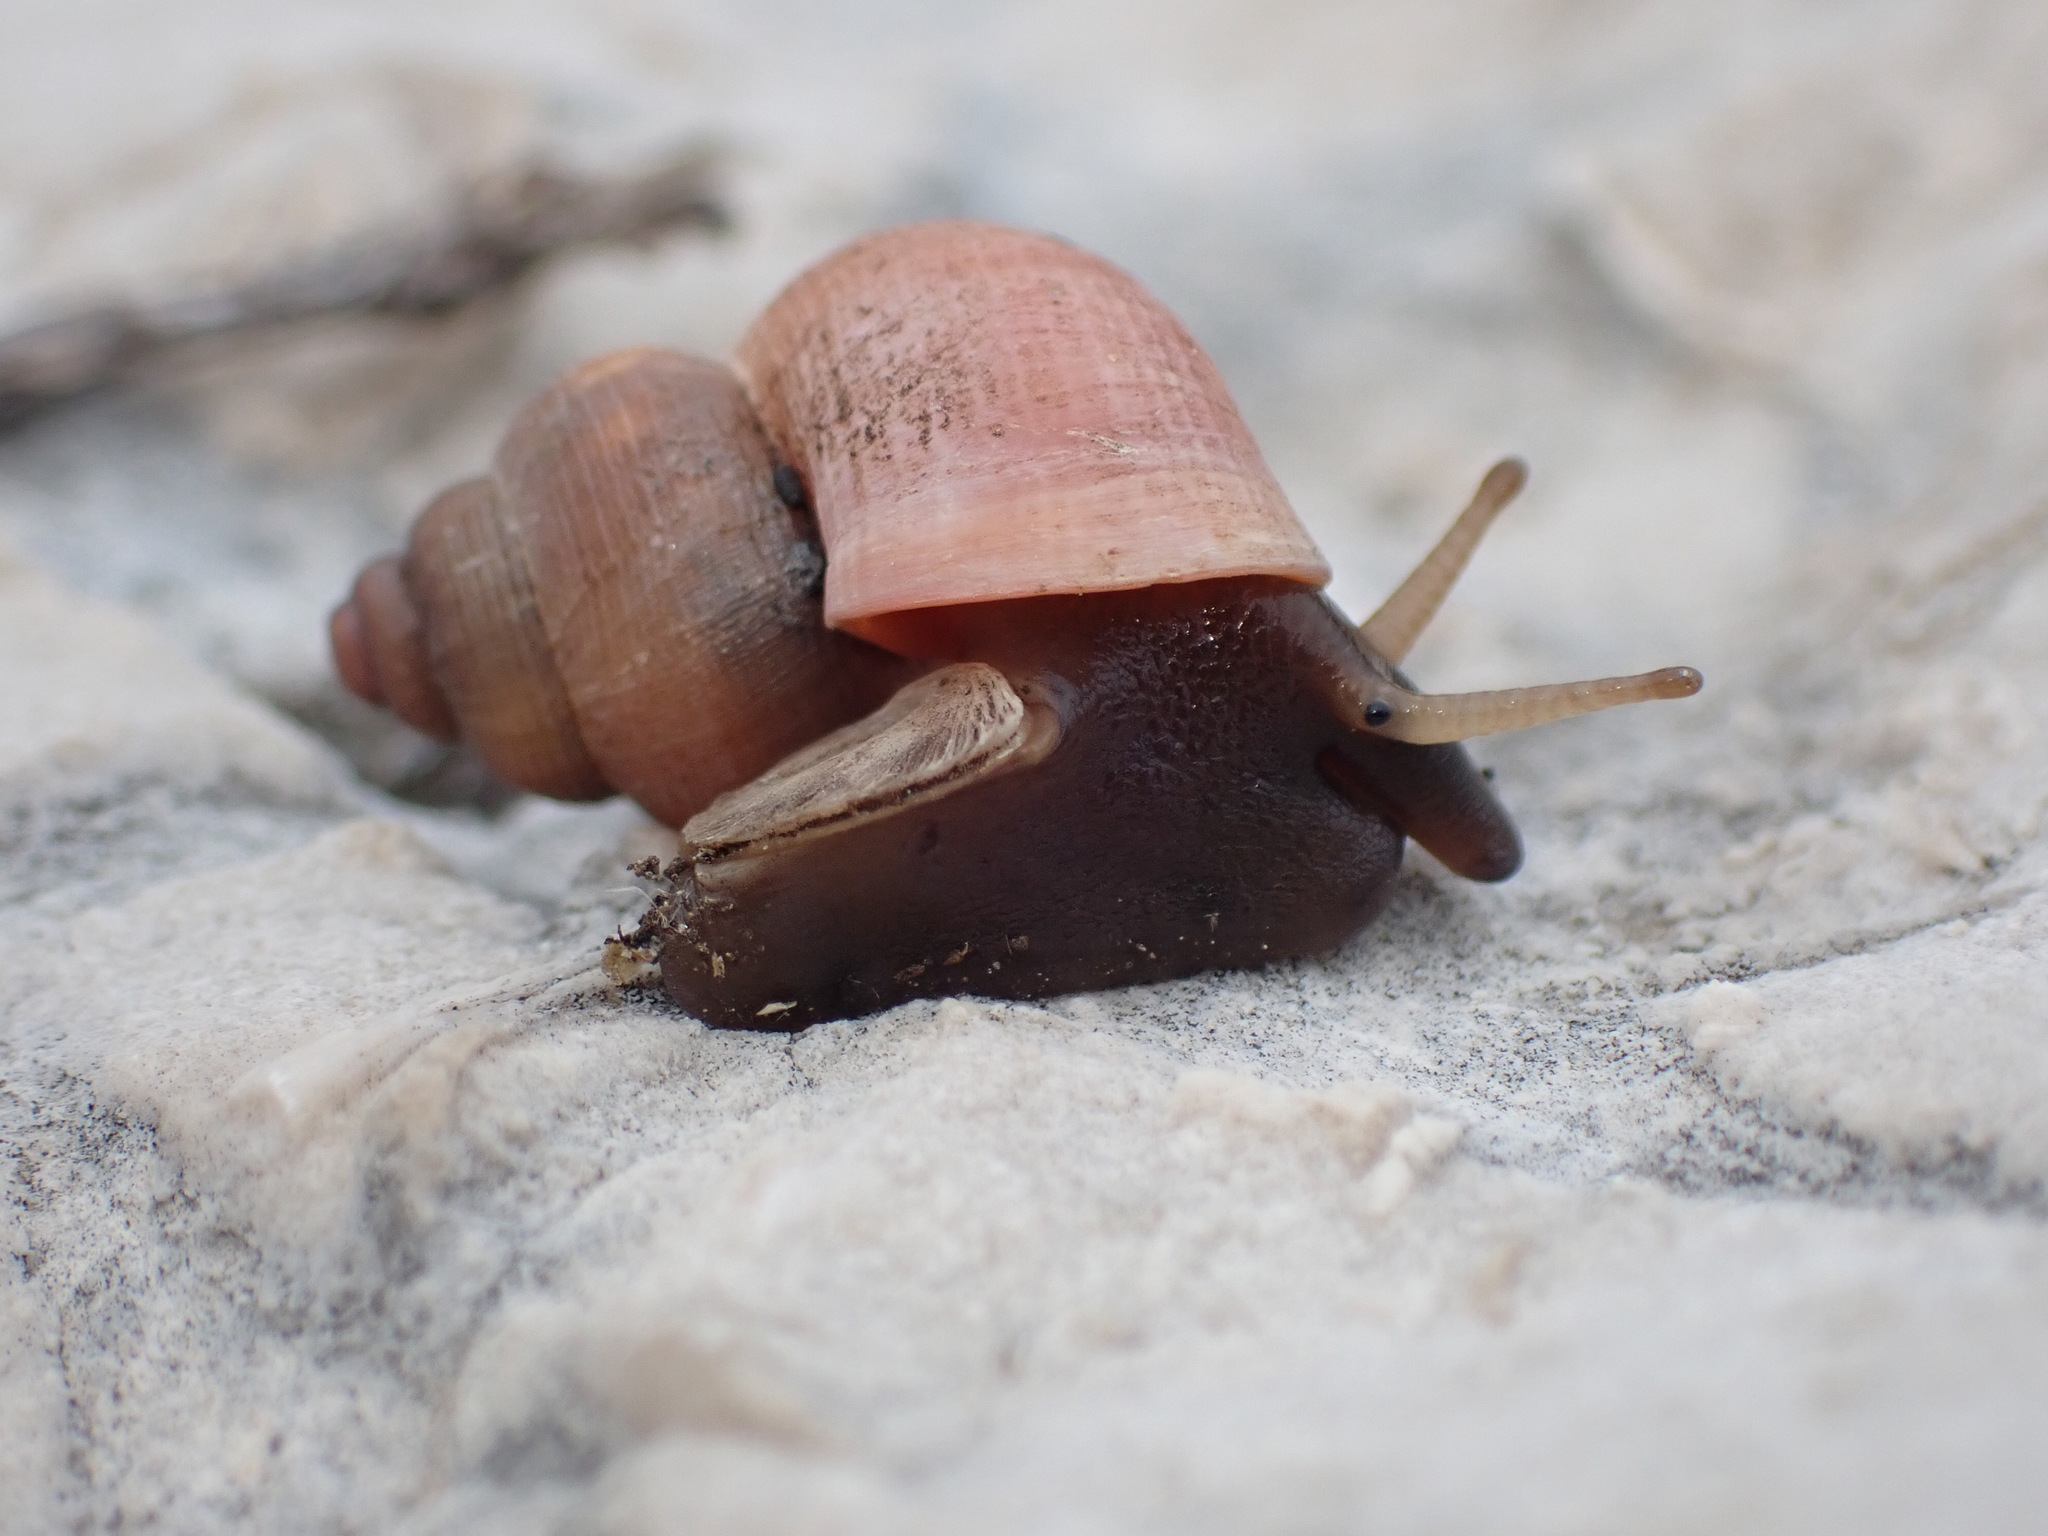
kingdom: Animalia
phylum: Mollusca
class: Gastropoda
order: Littorinimorpha
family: Pomatiidae
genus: Tudorella
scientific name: Tudorella sulcata
